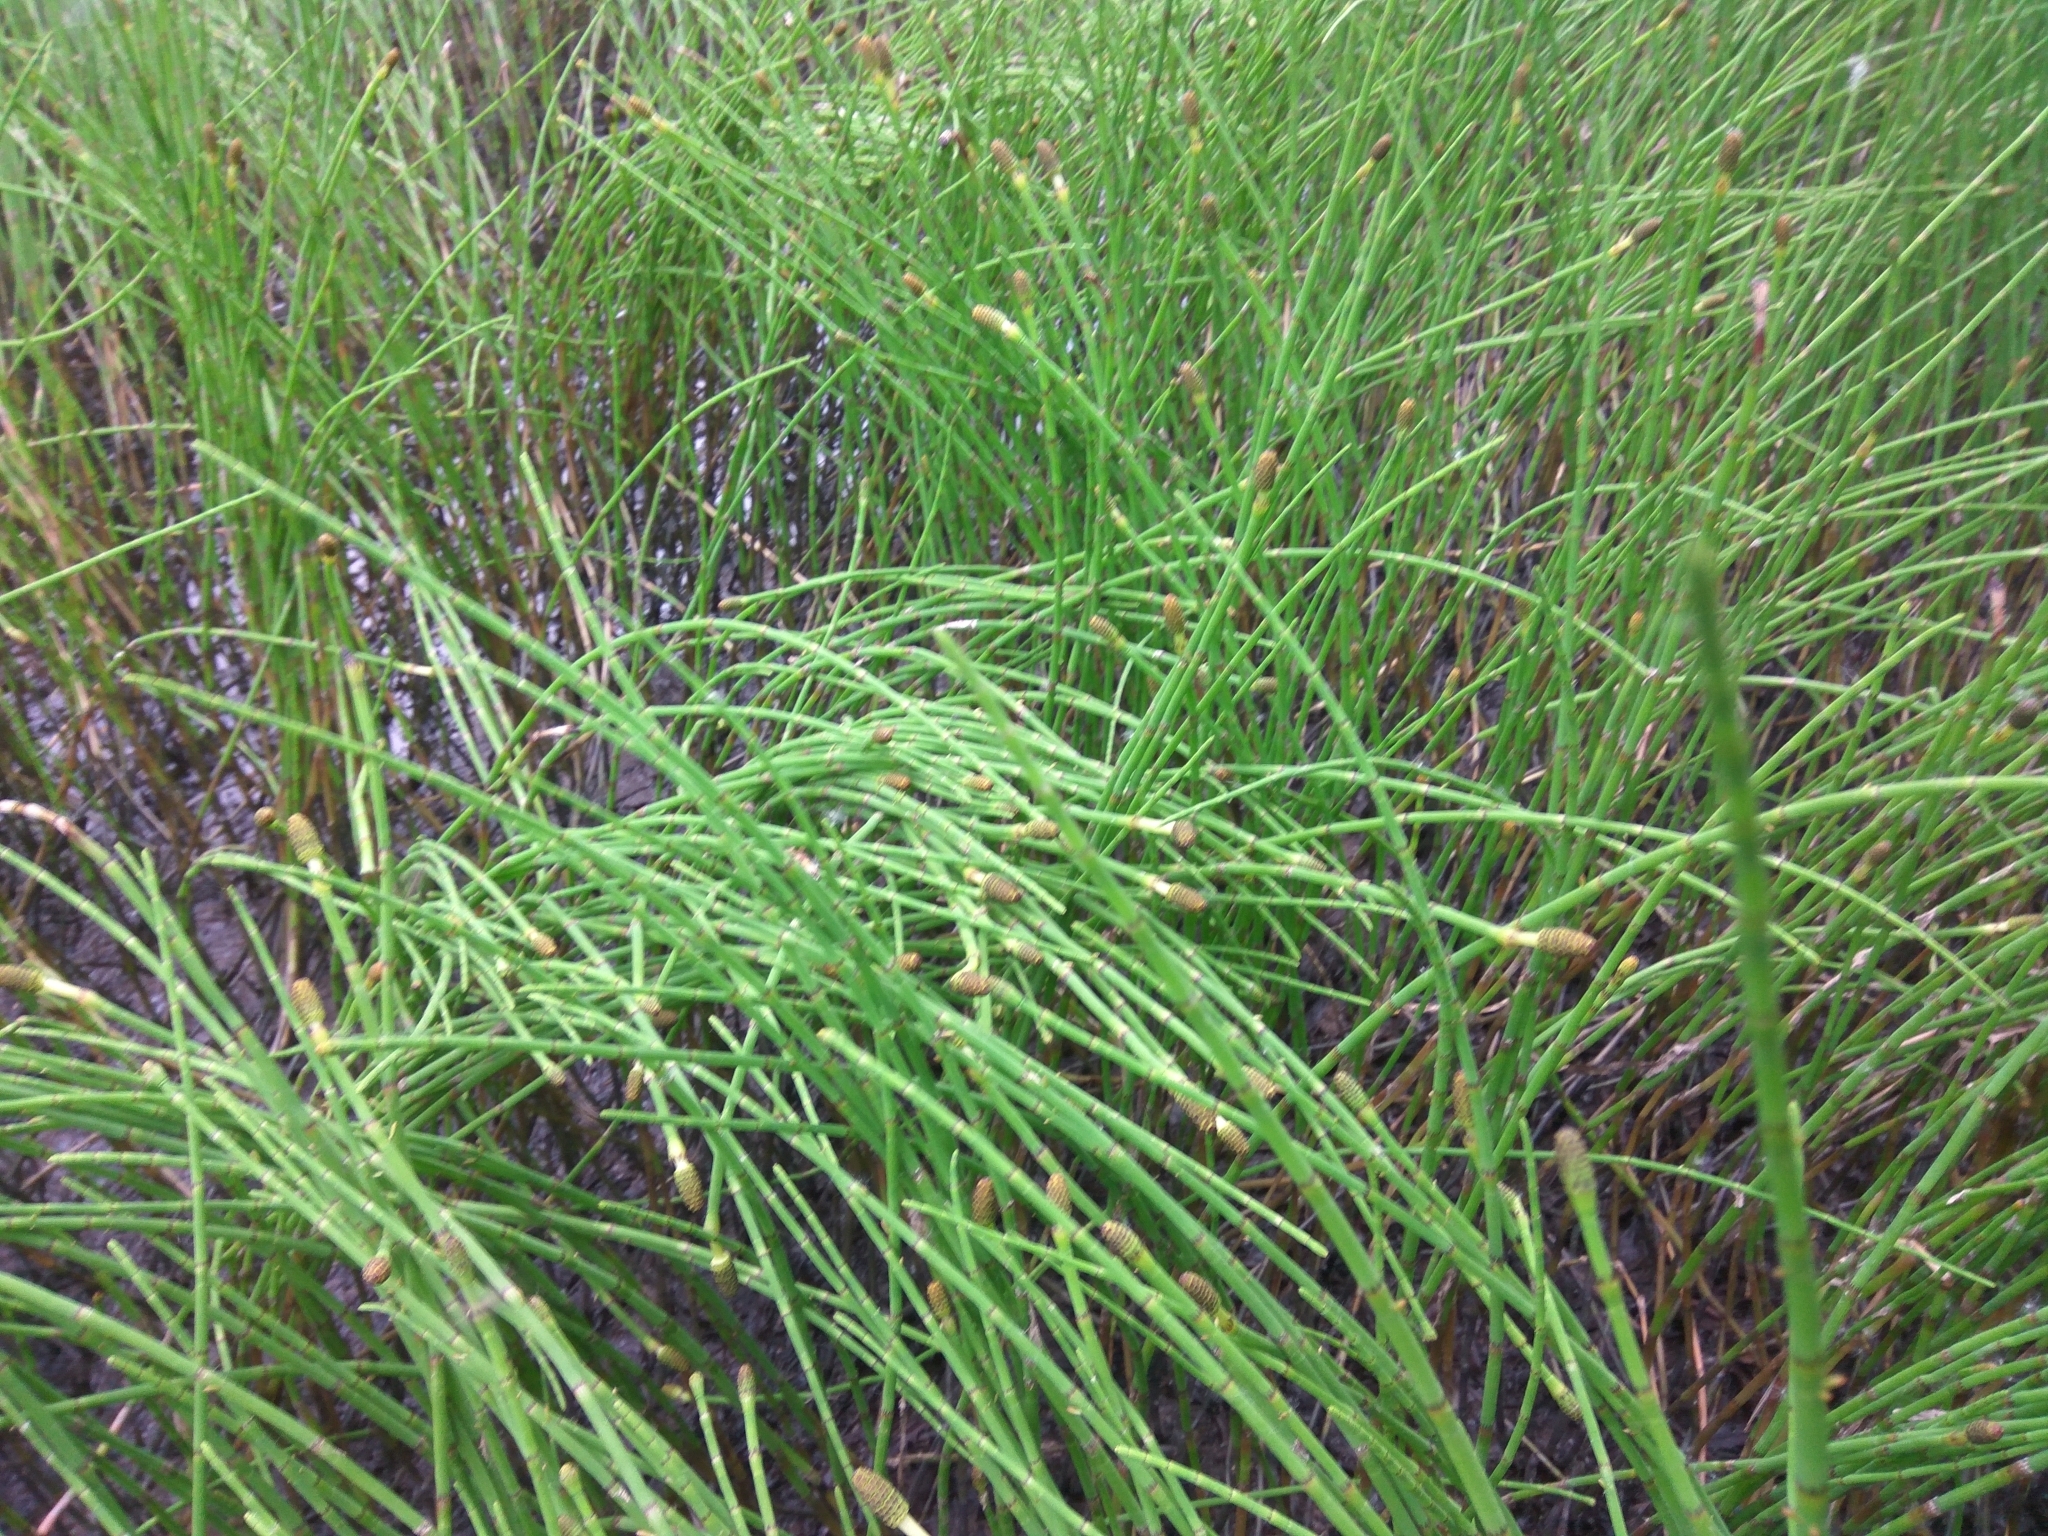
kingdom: Plantae
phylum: Tracheophyta
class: Polypodiopsida
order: Equisetales
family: Equisetaceae
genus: Equisetum
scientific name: Equisetum fluviatile
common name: Water horsetail
